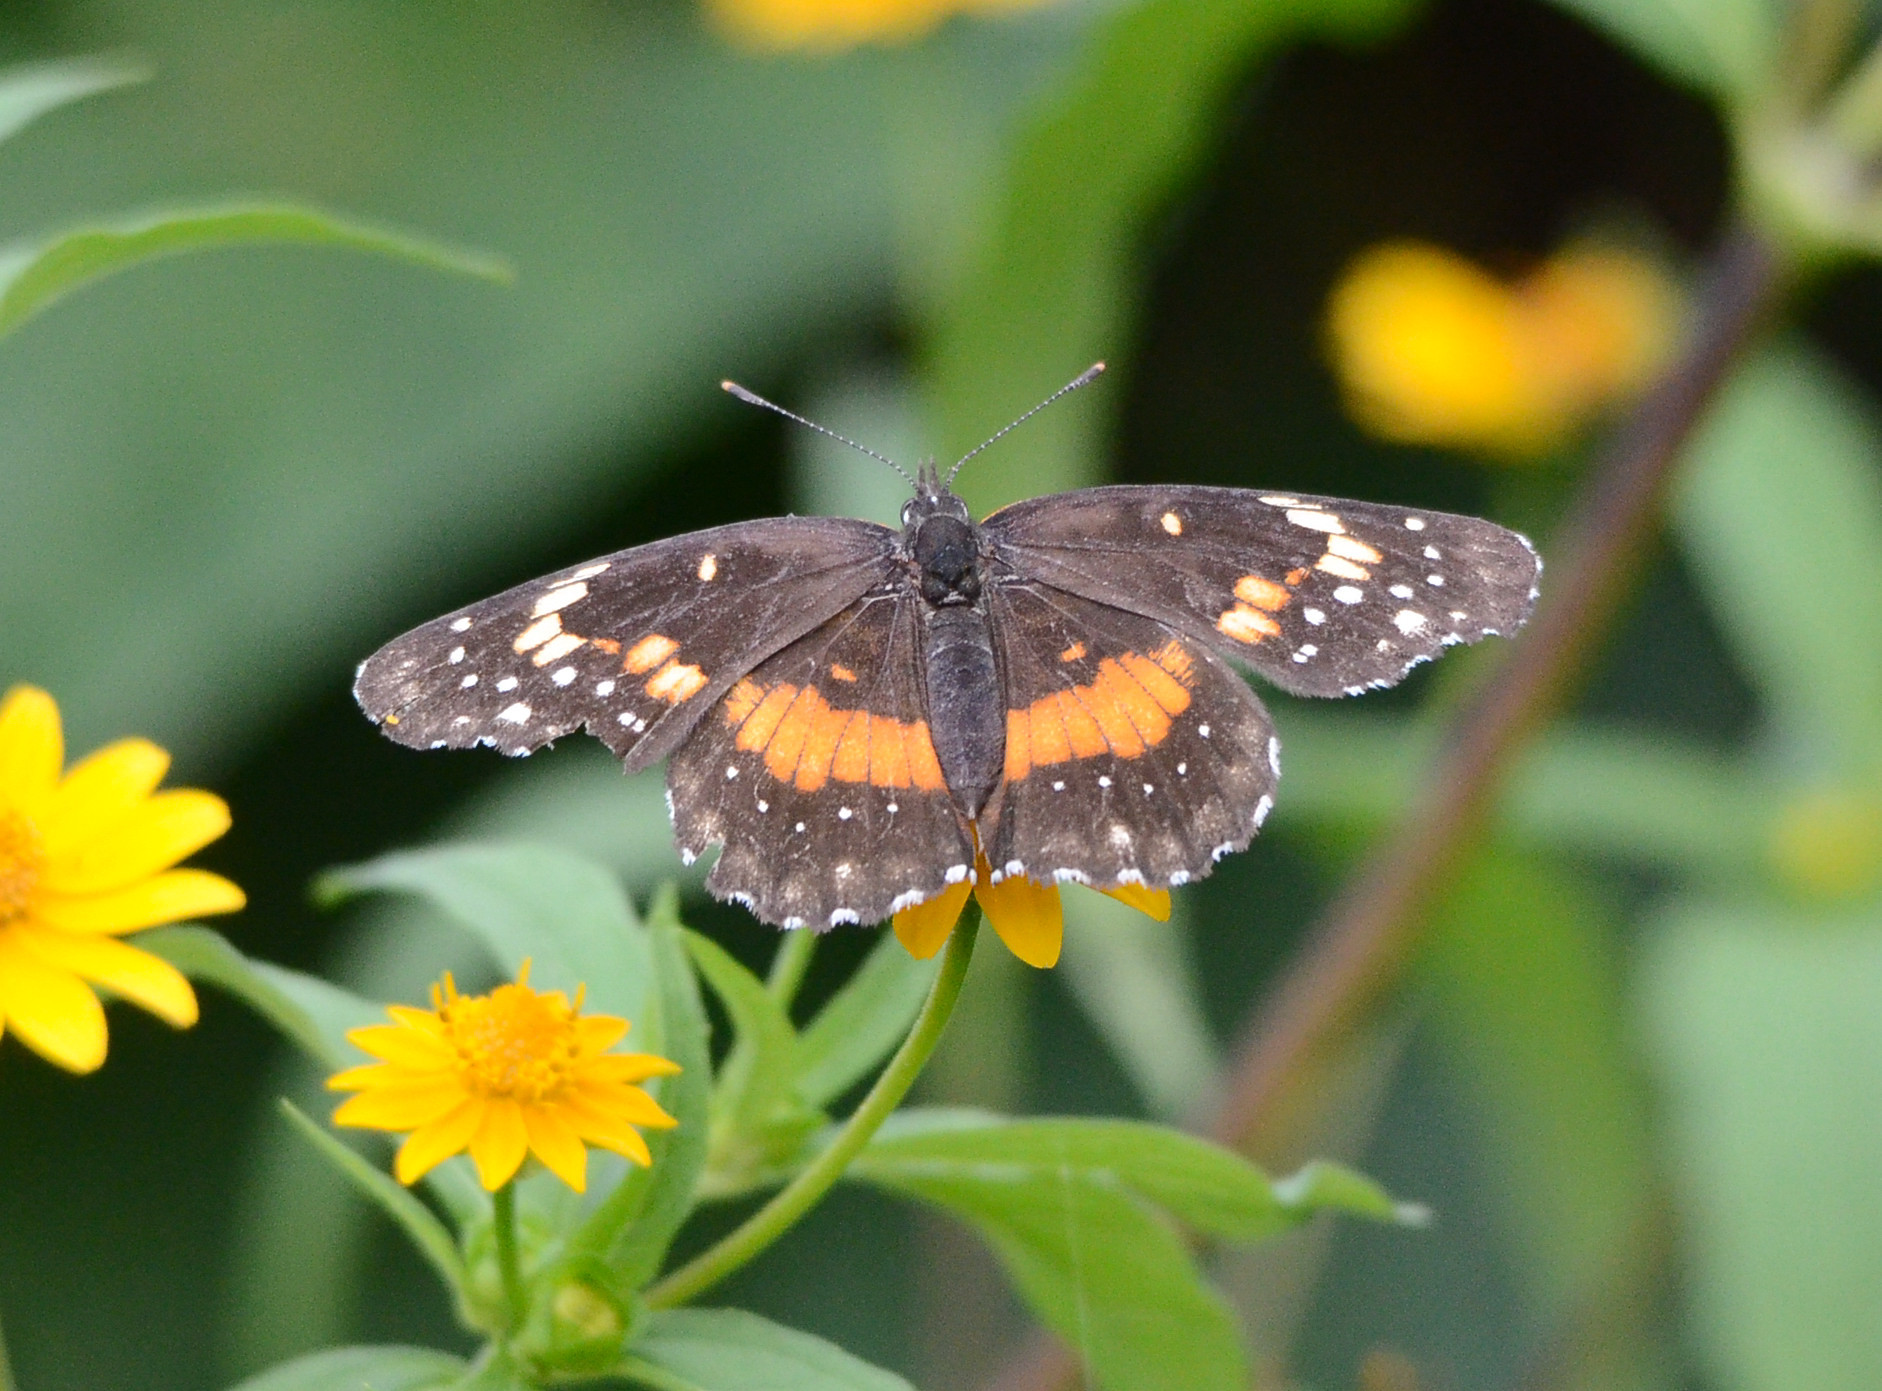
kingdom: Animalia
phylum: Arthropoda
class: Insecta
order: Lepidoptera
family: Nymphalidae
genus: Chlosyne
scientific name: Chlosyne lacinia
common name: Bordered patch
